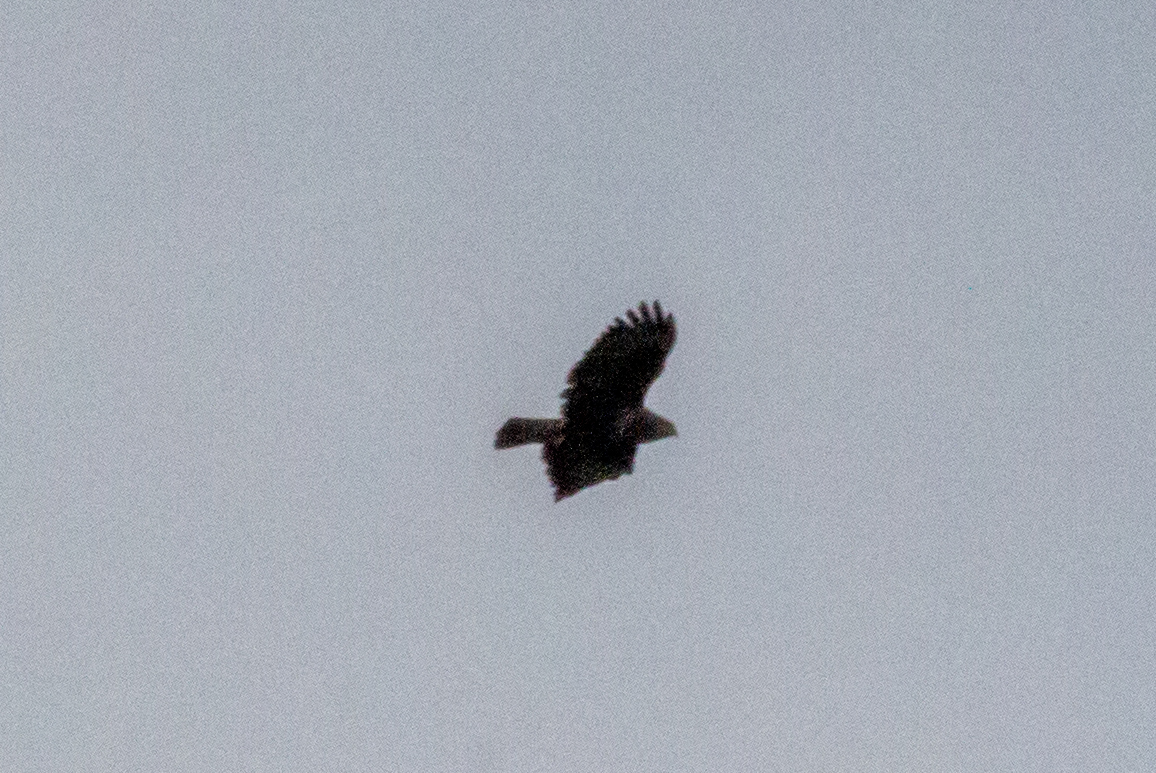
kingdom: Animalia
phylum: Chordata
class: Aves
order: Accipitriformes
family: Accipitridae
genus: Buteo
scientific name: Buteo buteo
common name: Common buzzard
